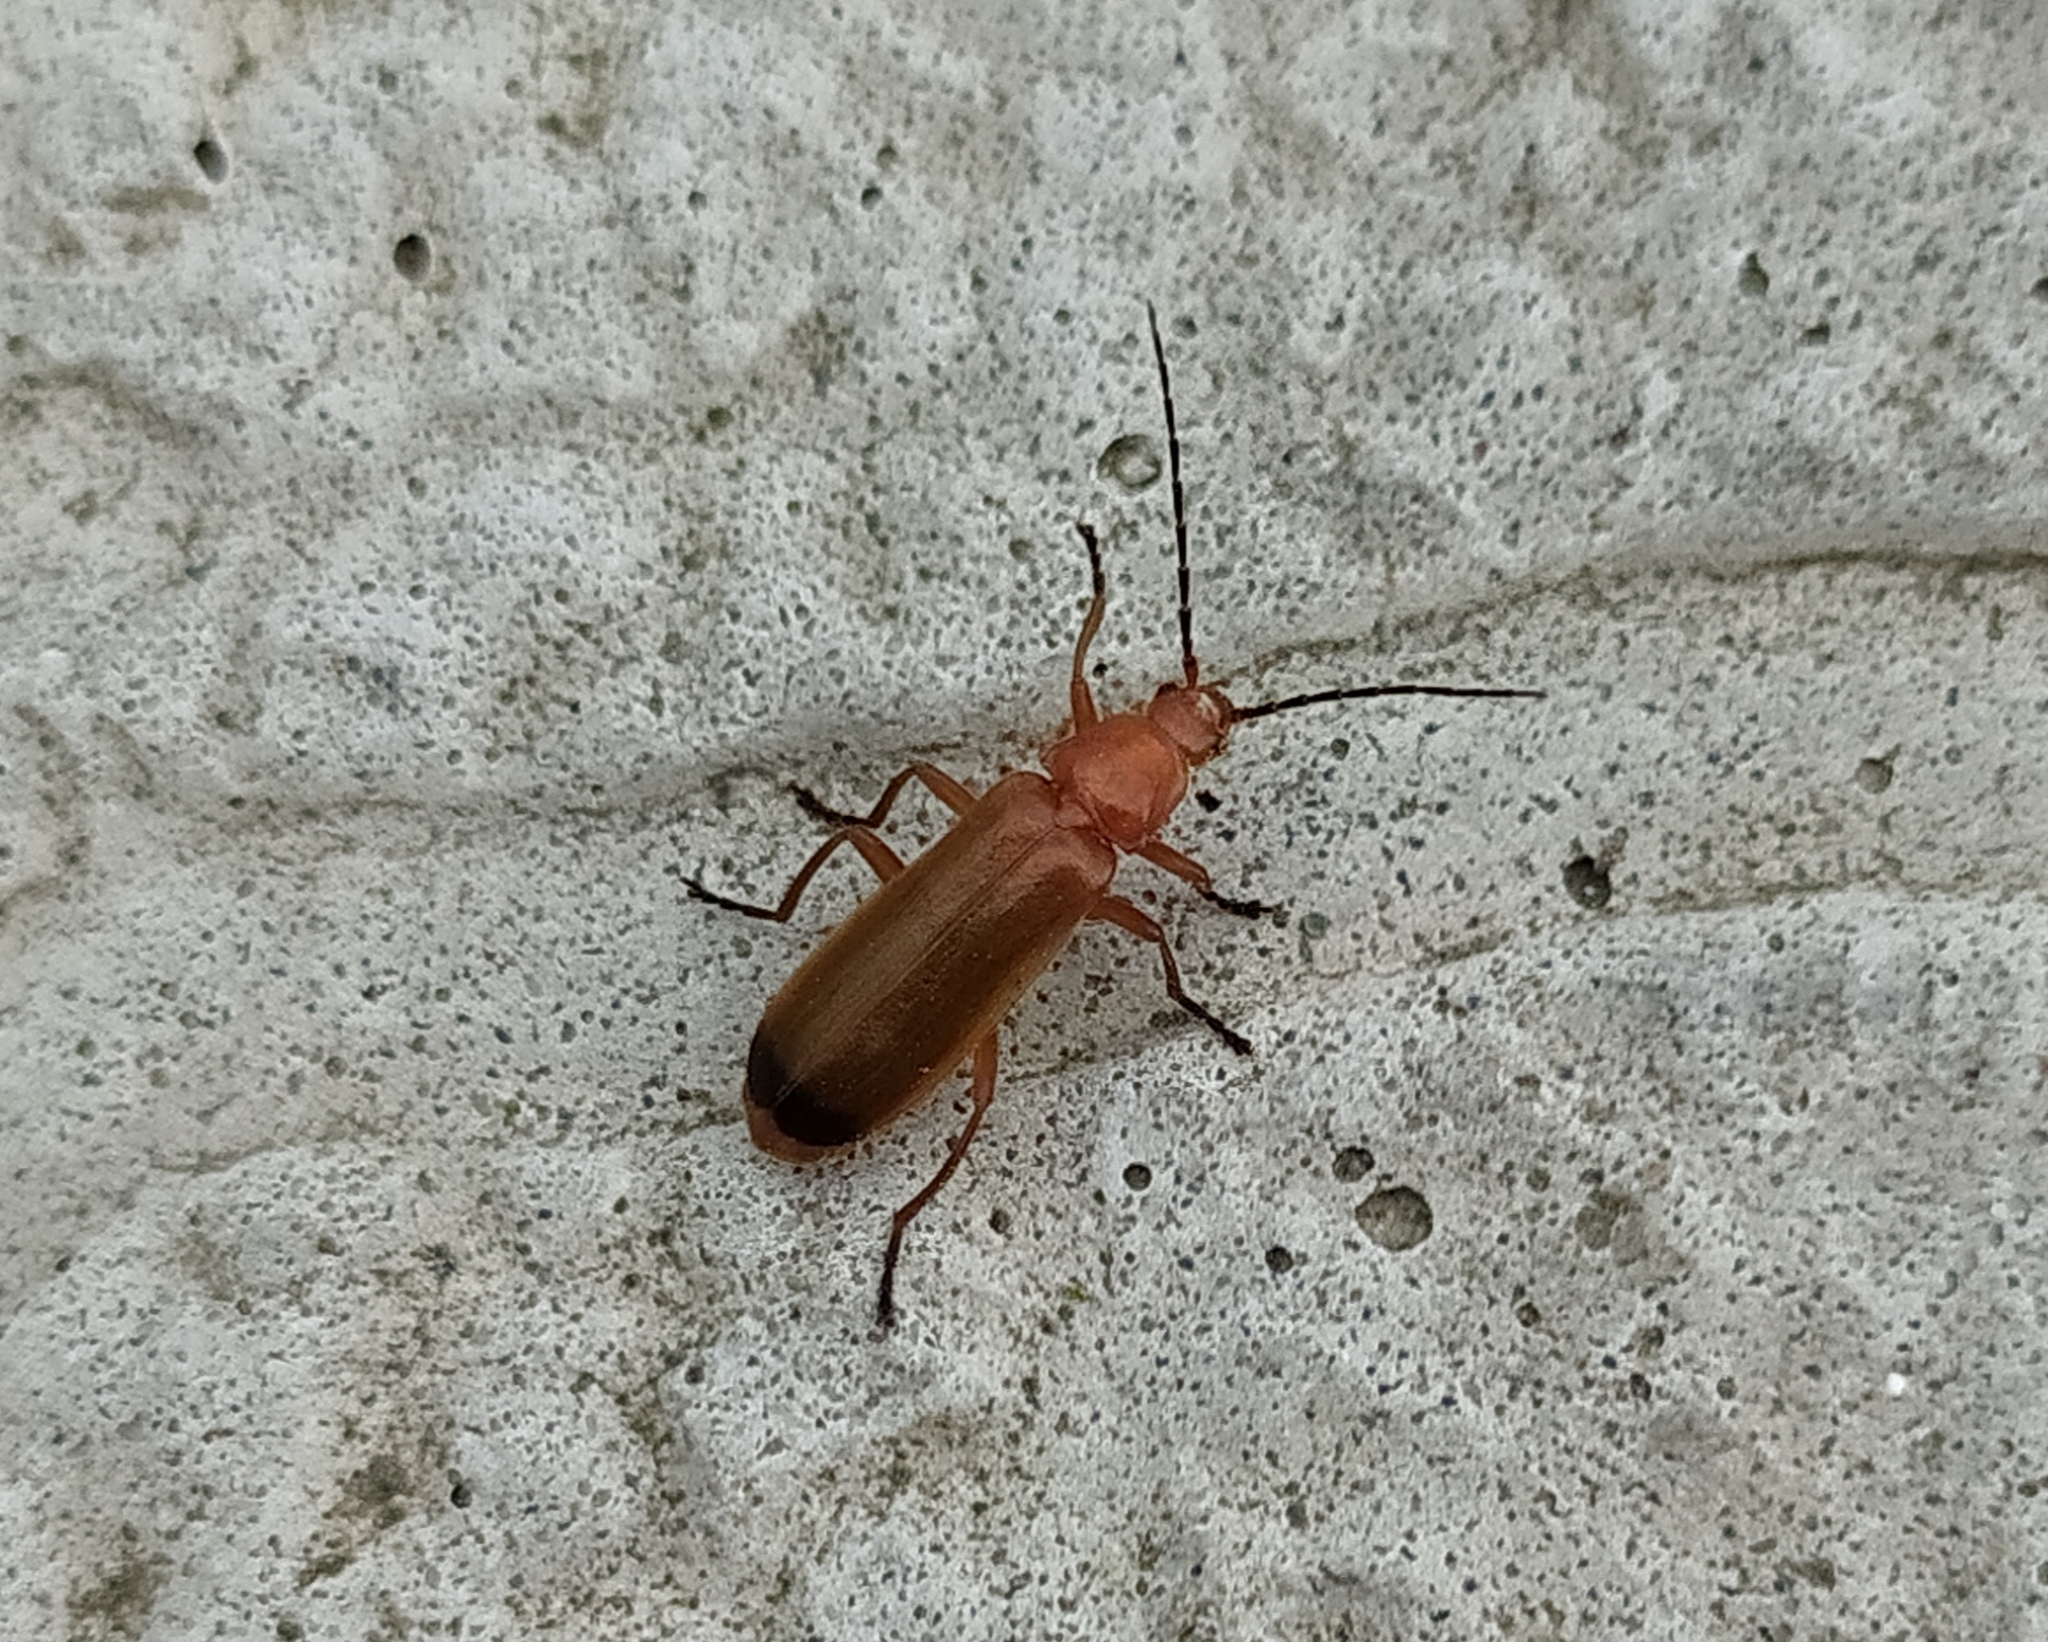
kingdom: Animalia
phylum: Arthropoda
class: Insecta
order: Coleoptera
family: Cantharidae
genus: Rhagonycha
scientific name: Rhagonycha fulva
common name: Common red soldier beetle
